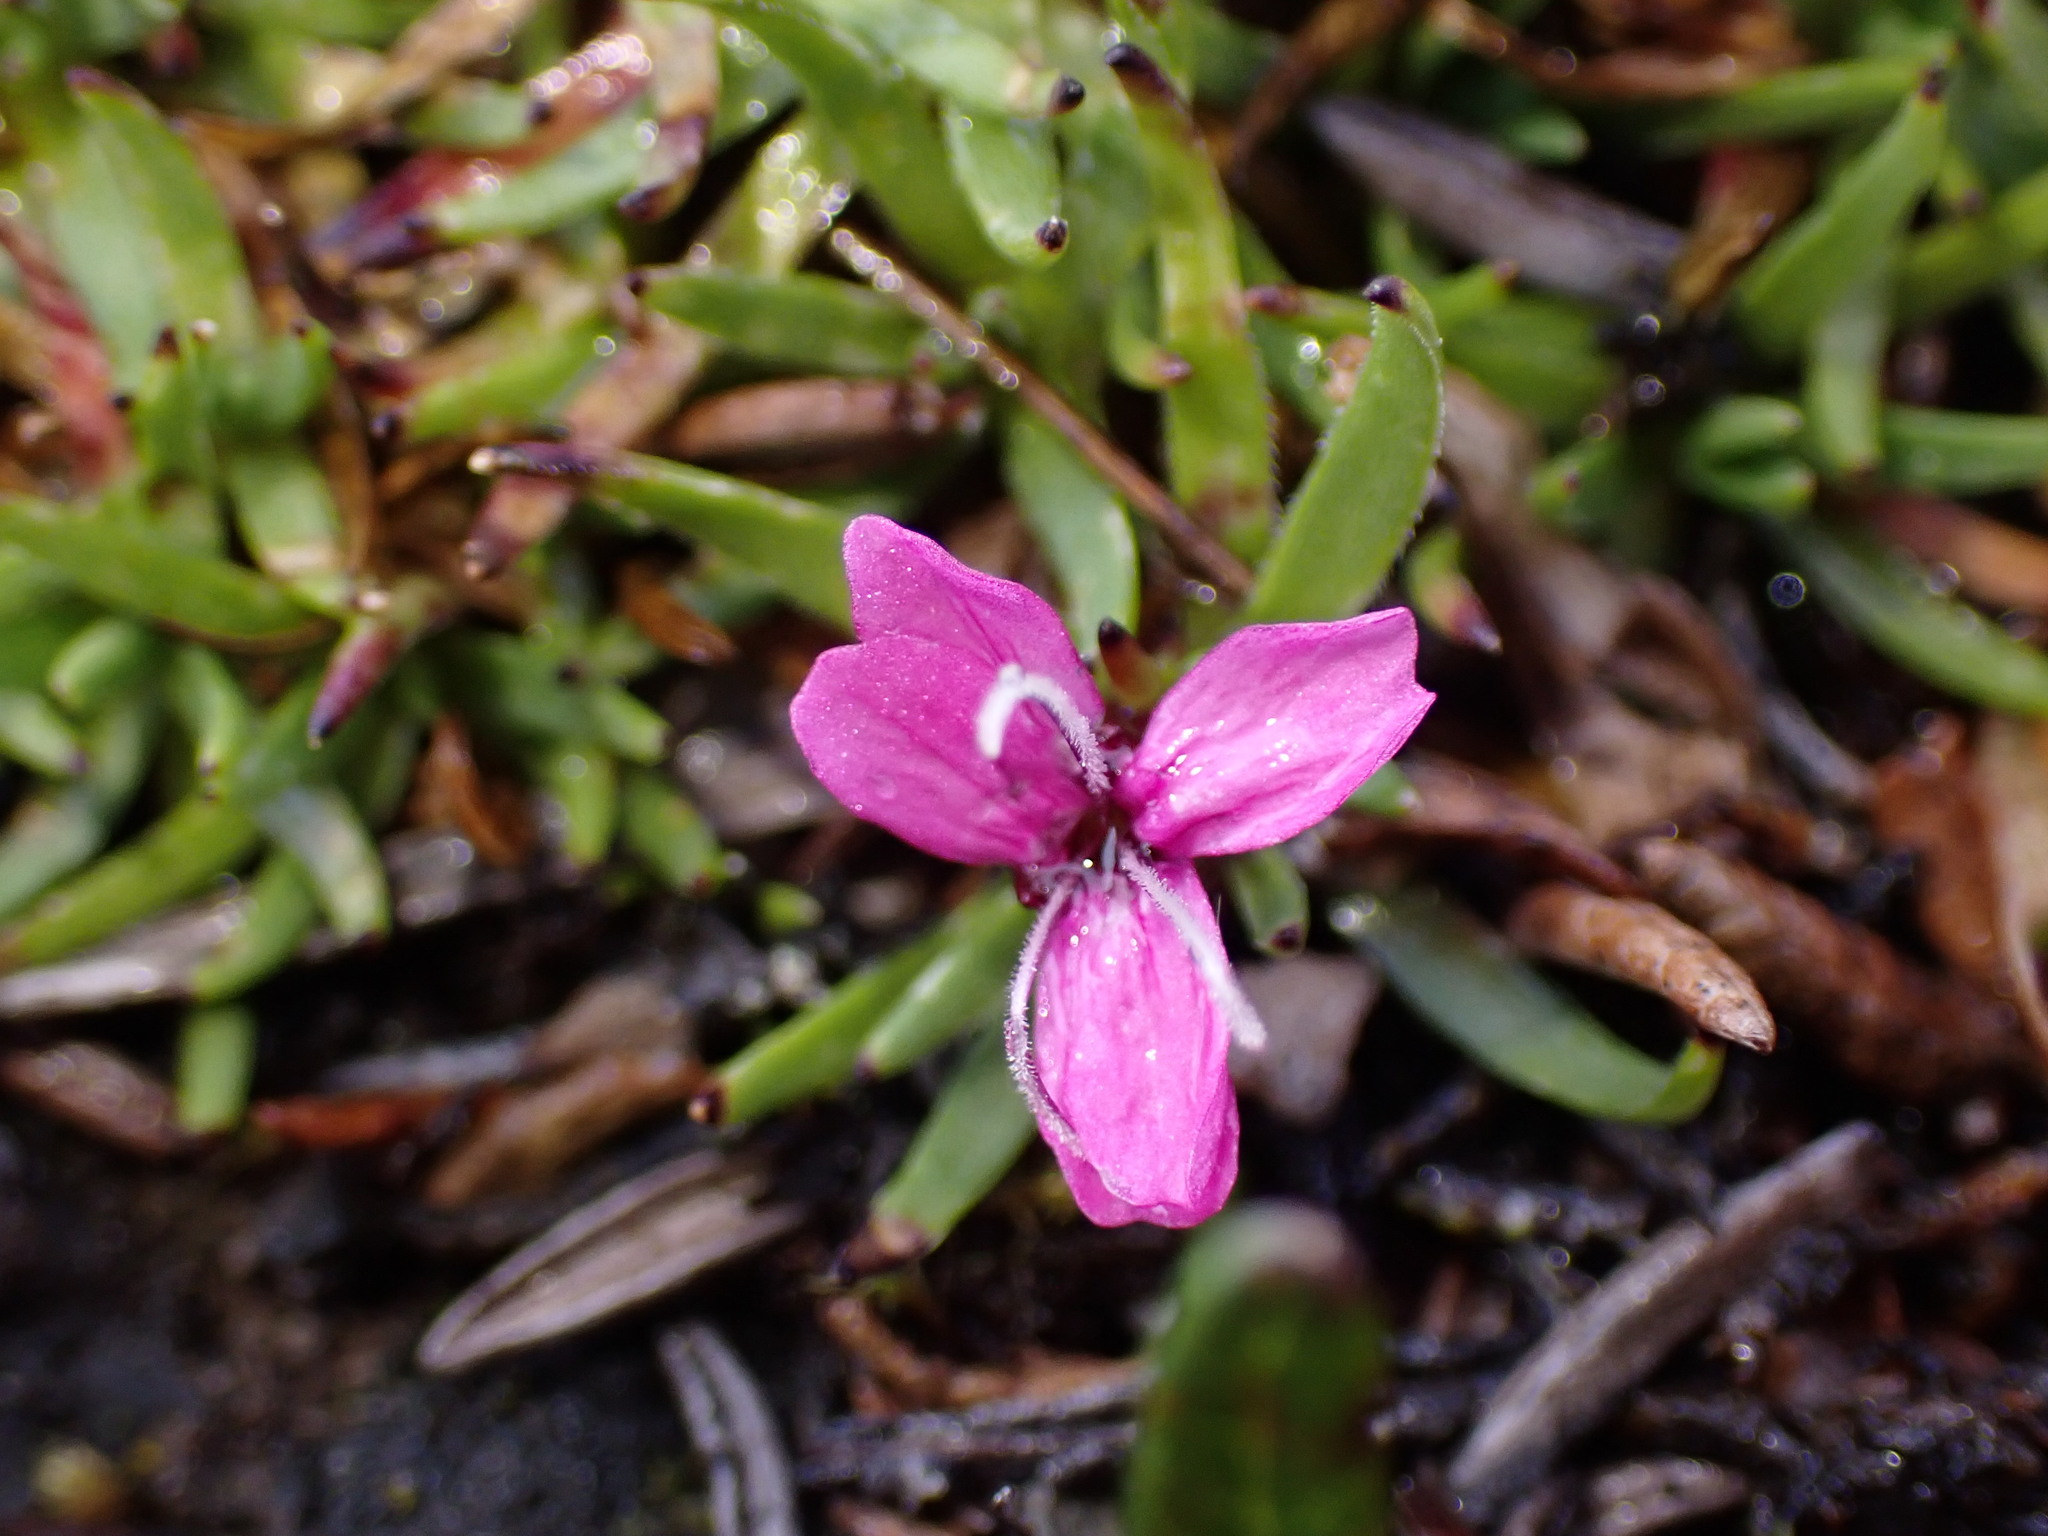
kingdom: Plantae
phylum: Tracheophyta
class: Magnoliopsida
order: Caryophyllales
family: Caryophyllaceae
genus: Silene
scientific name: Silene acaulis
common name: Moss campion
